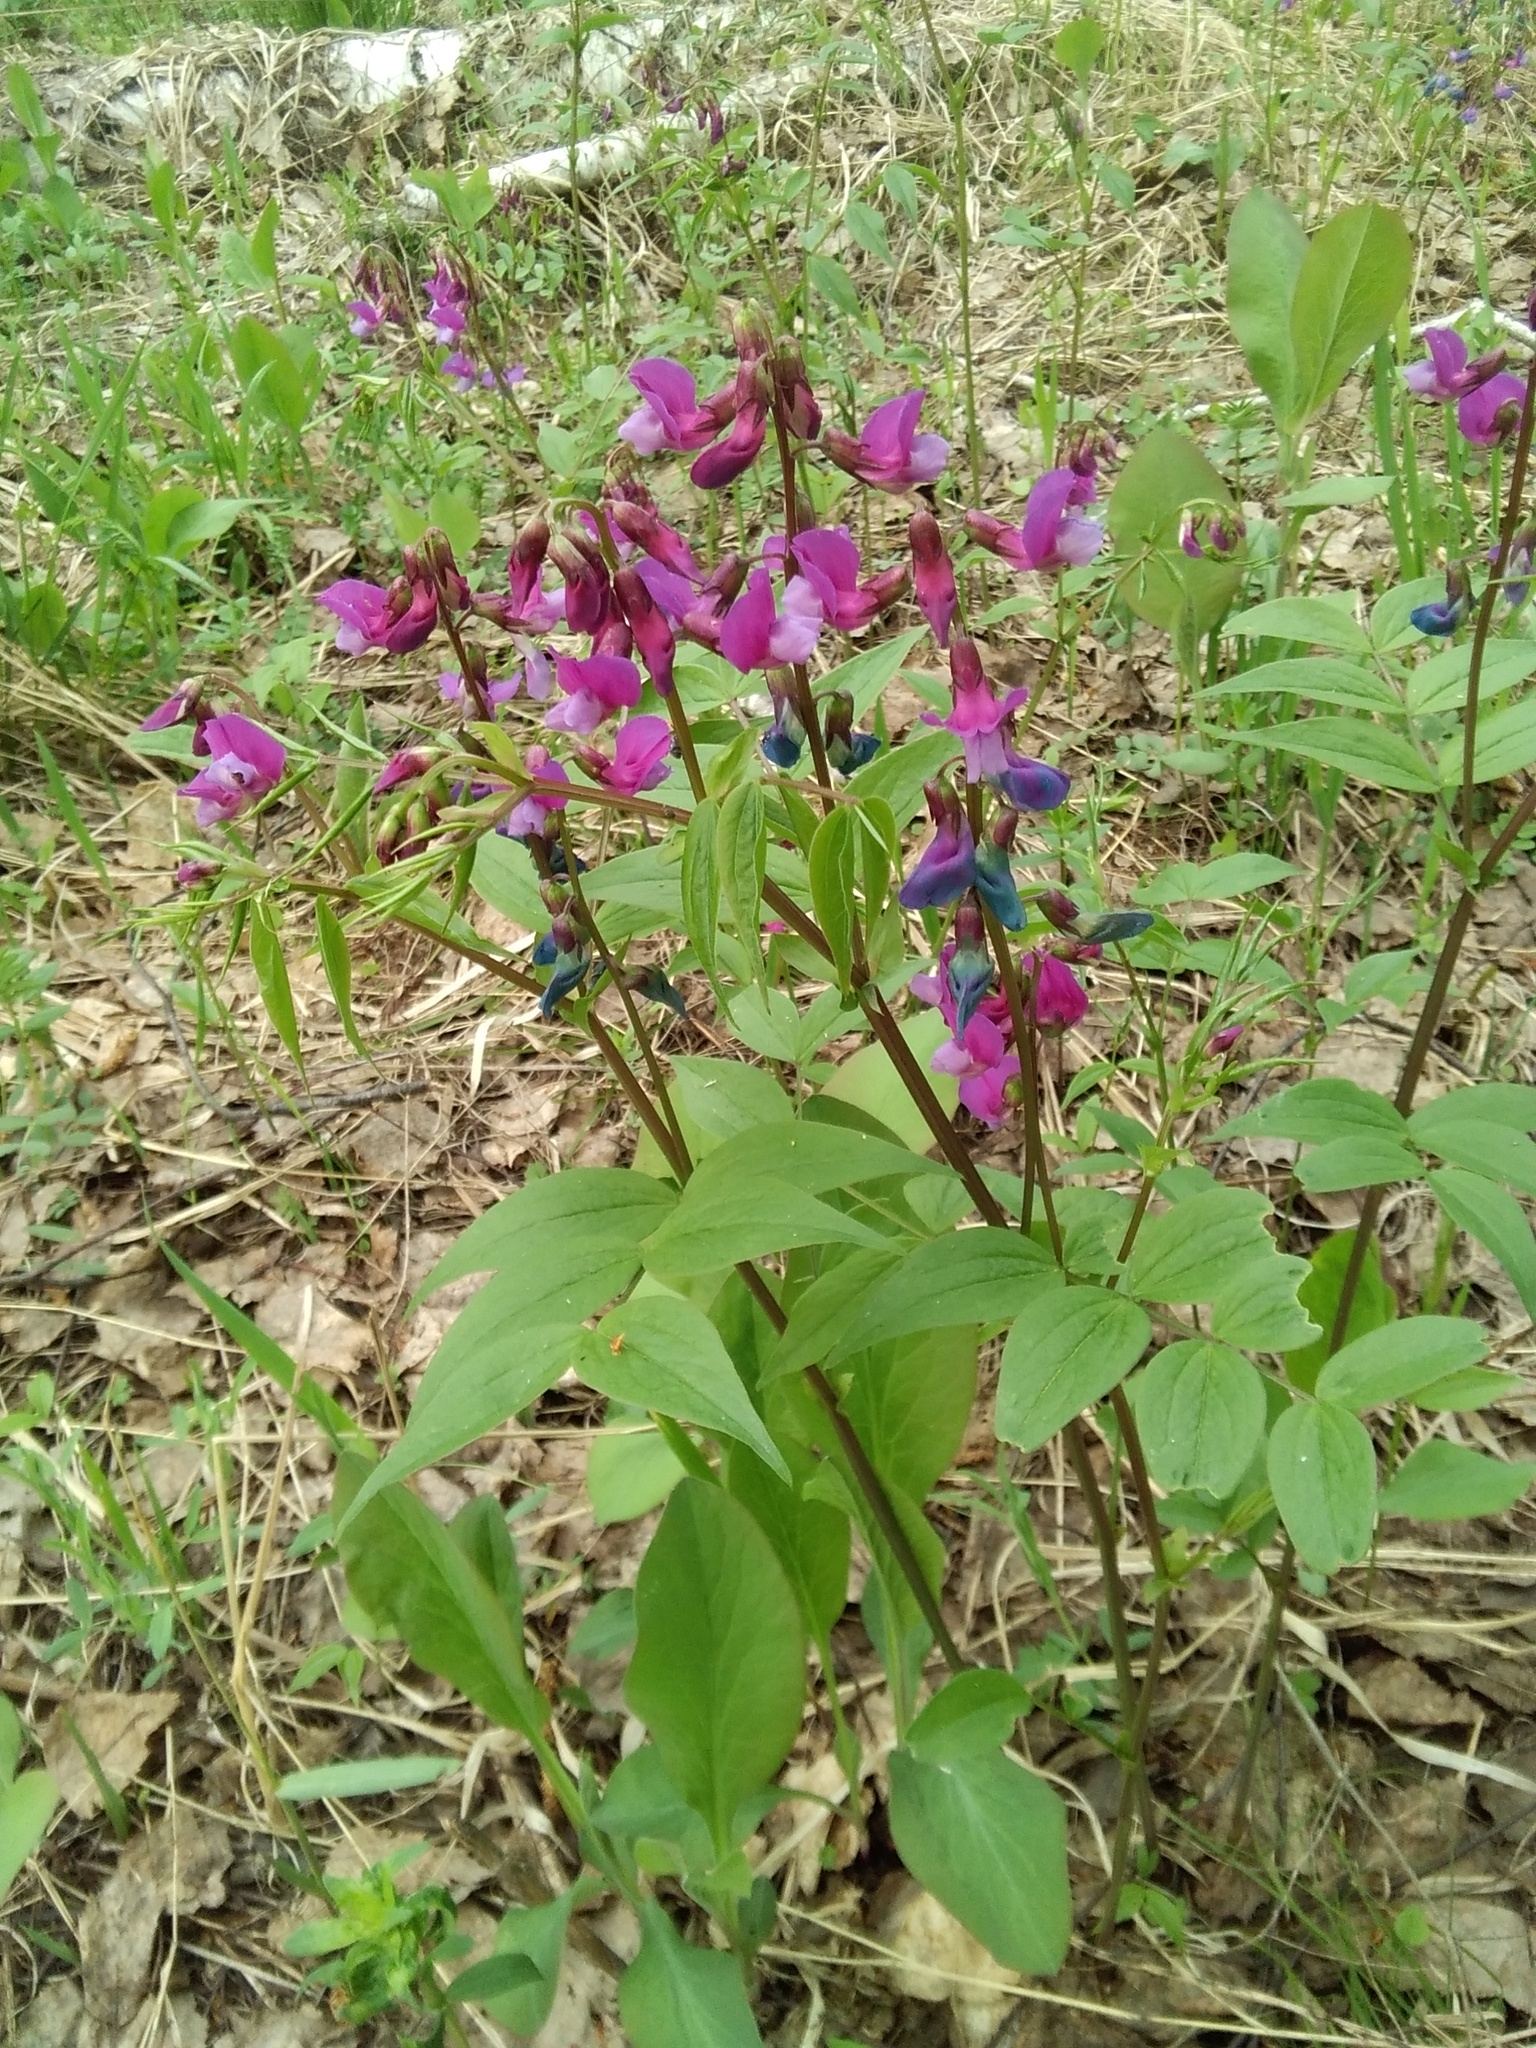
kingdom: Plantae
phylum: Tracheophyta
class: Magnoliopsida
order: Fabales
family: Fabaceae
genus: Lathyrus
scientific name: Lathyrus vernus
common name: Spring pea
